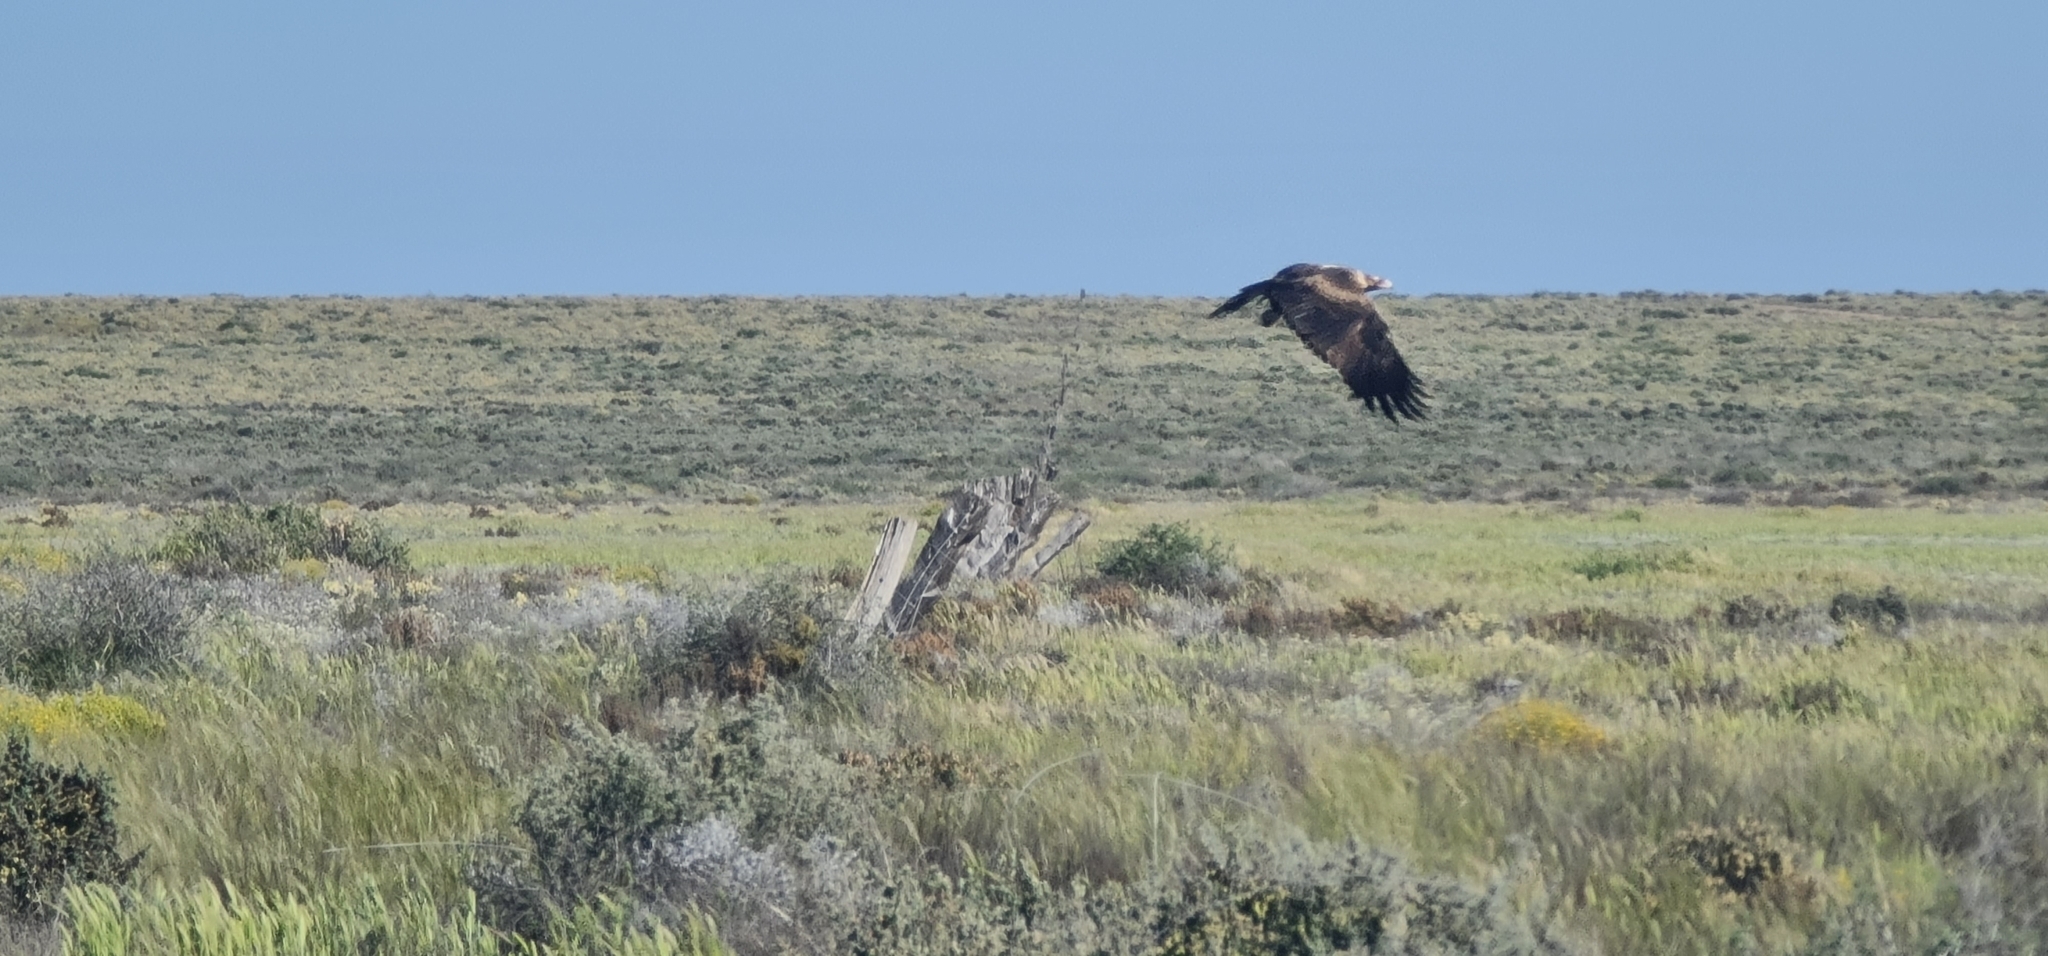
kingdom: Animalia
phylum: Chordata
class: Aves
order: Accipitriformes
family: Accipitridae
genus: Aquila
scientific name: Aquila audax
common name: Wedge-tailed eagle
